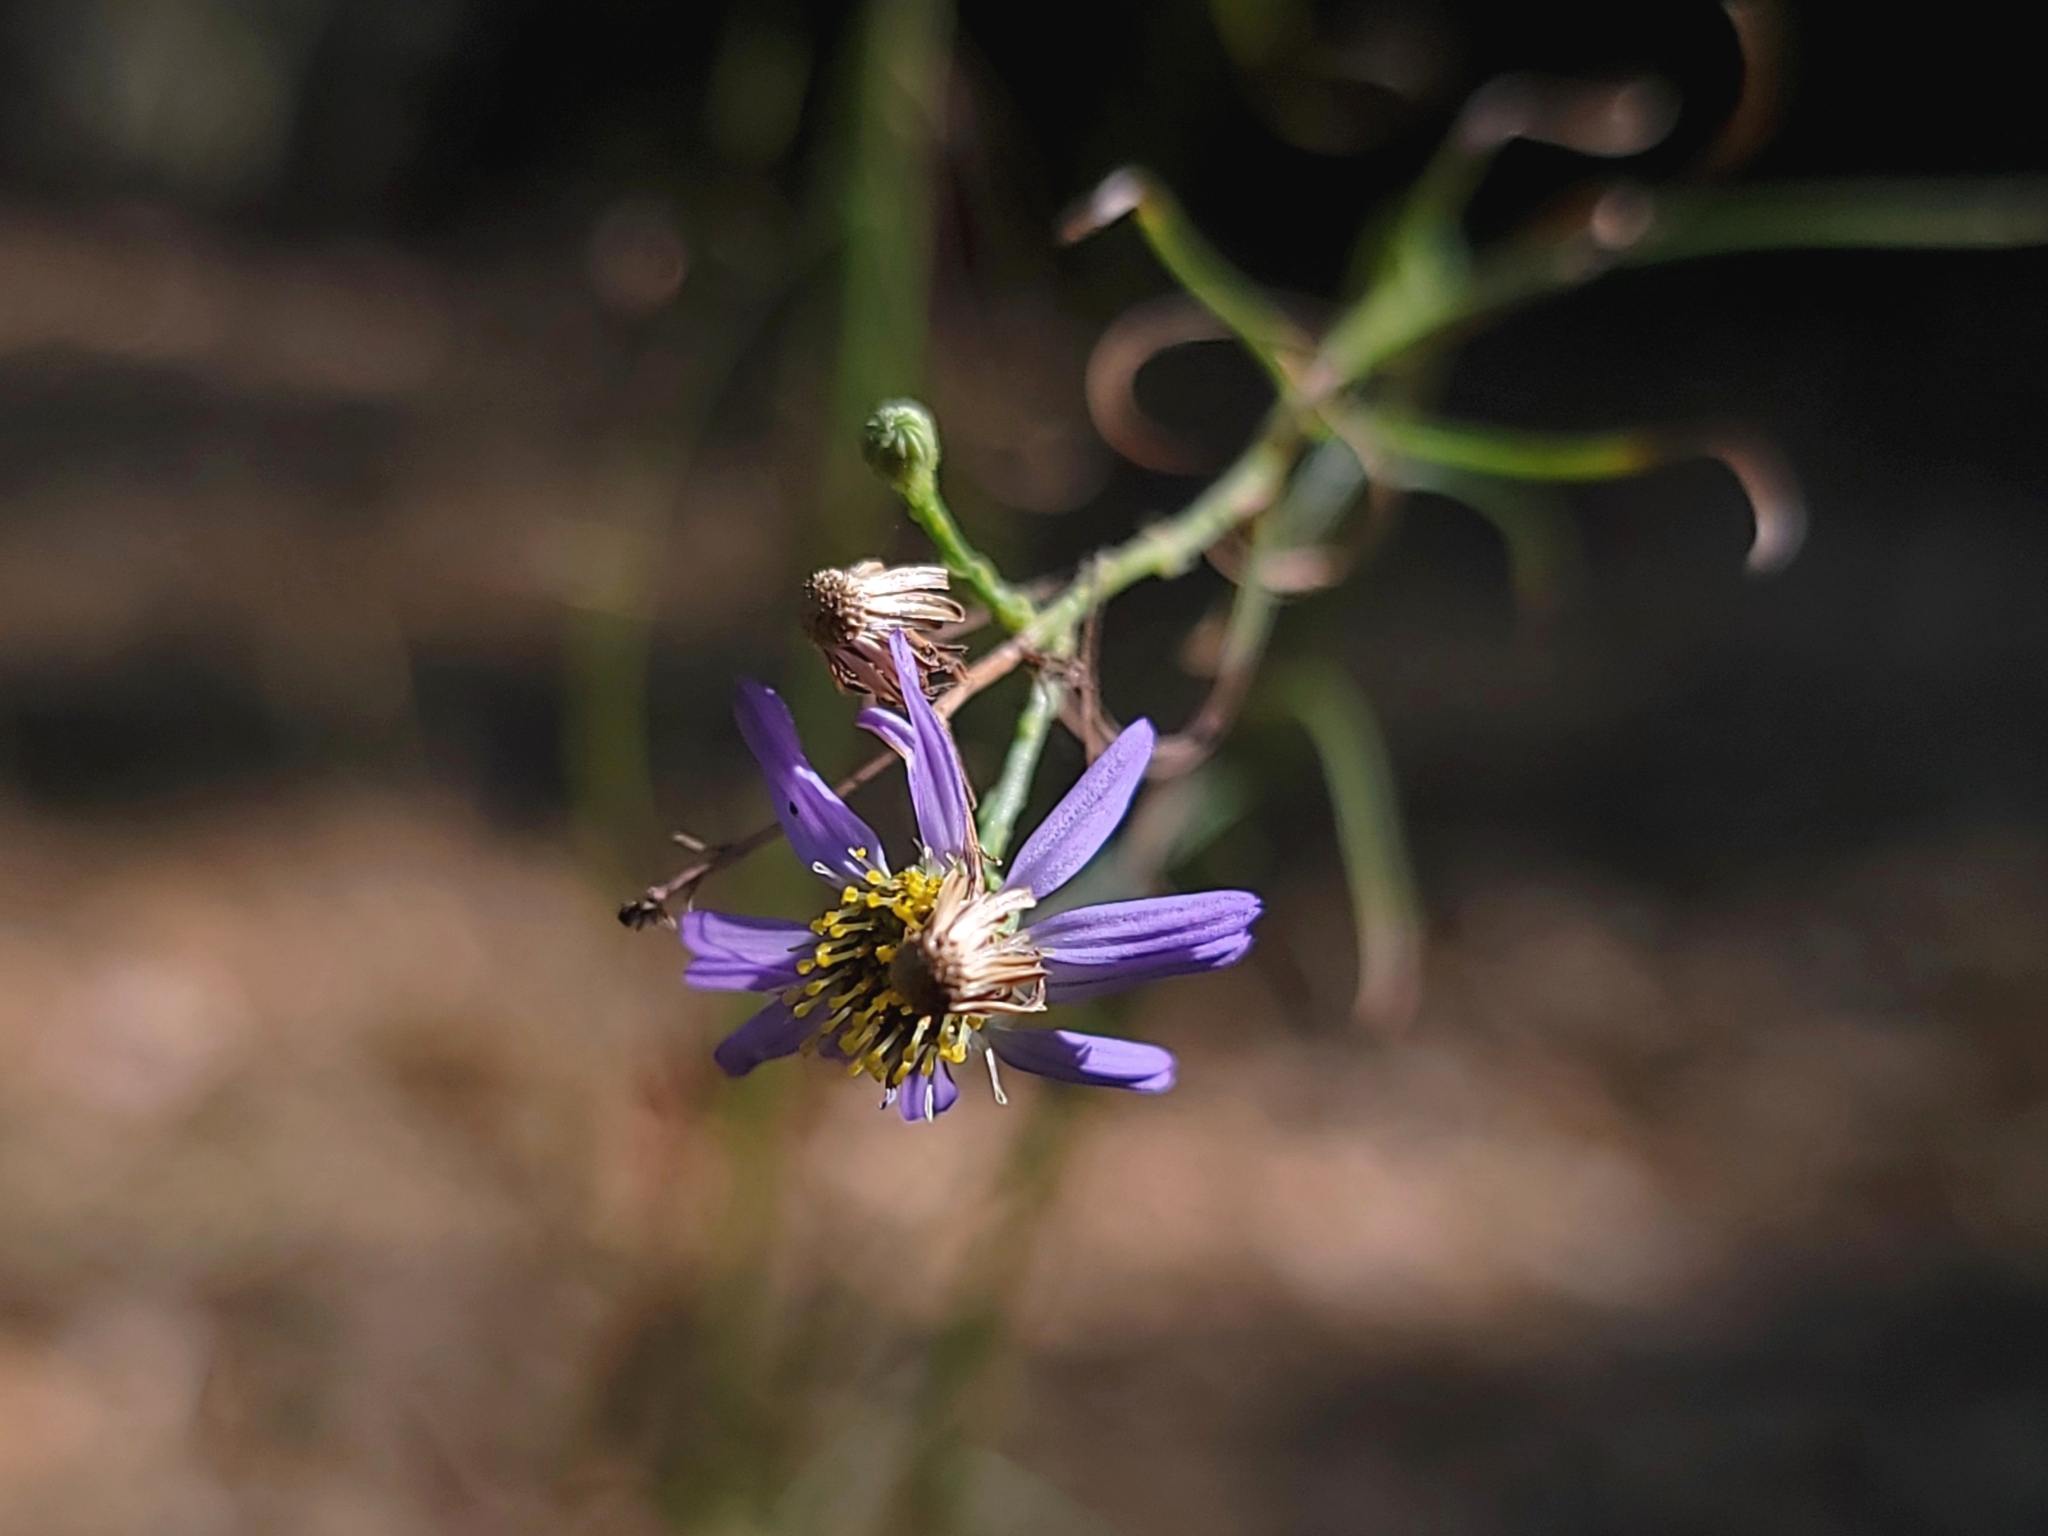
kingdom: Plantae
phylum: Tracheophyta
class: Magnoliopsida
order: Asterales
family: Asteraceae
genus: Erigeron
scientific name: Erigeron foliosus
